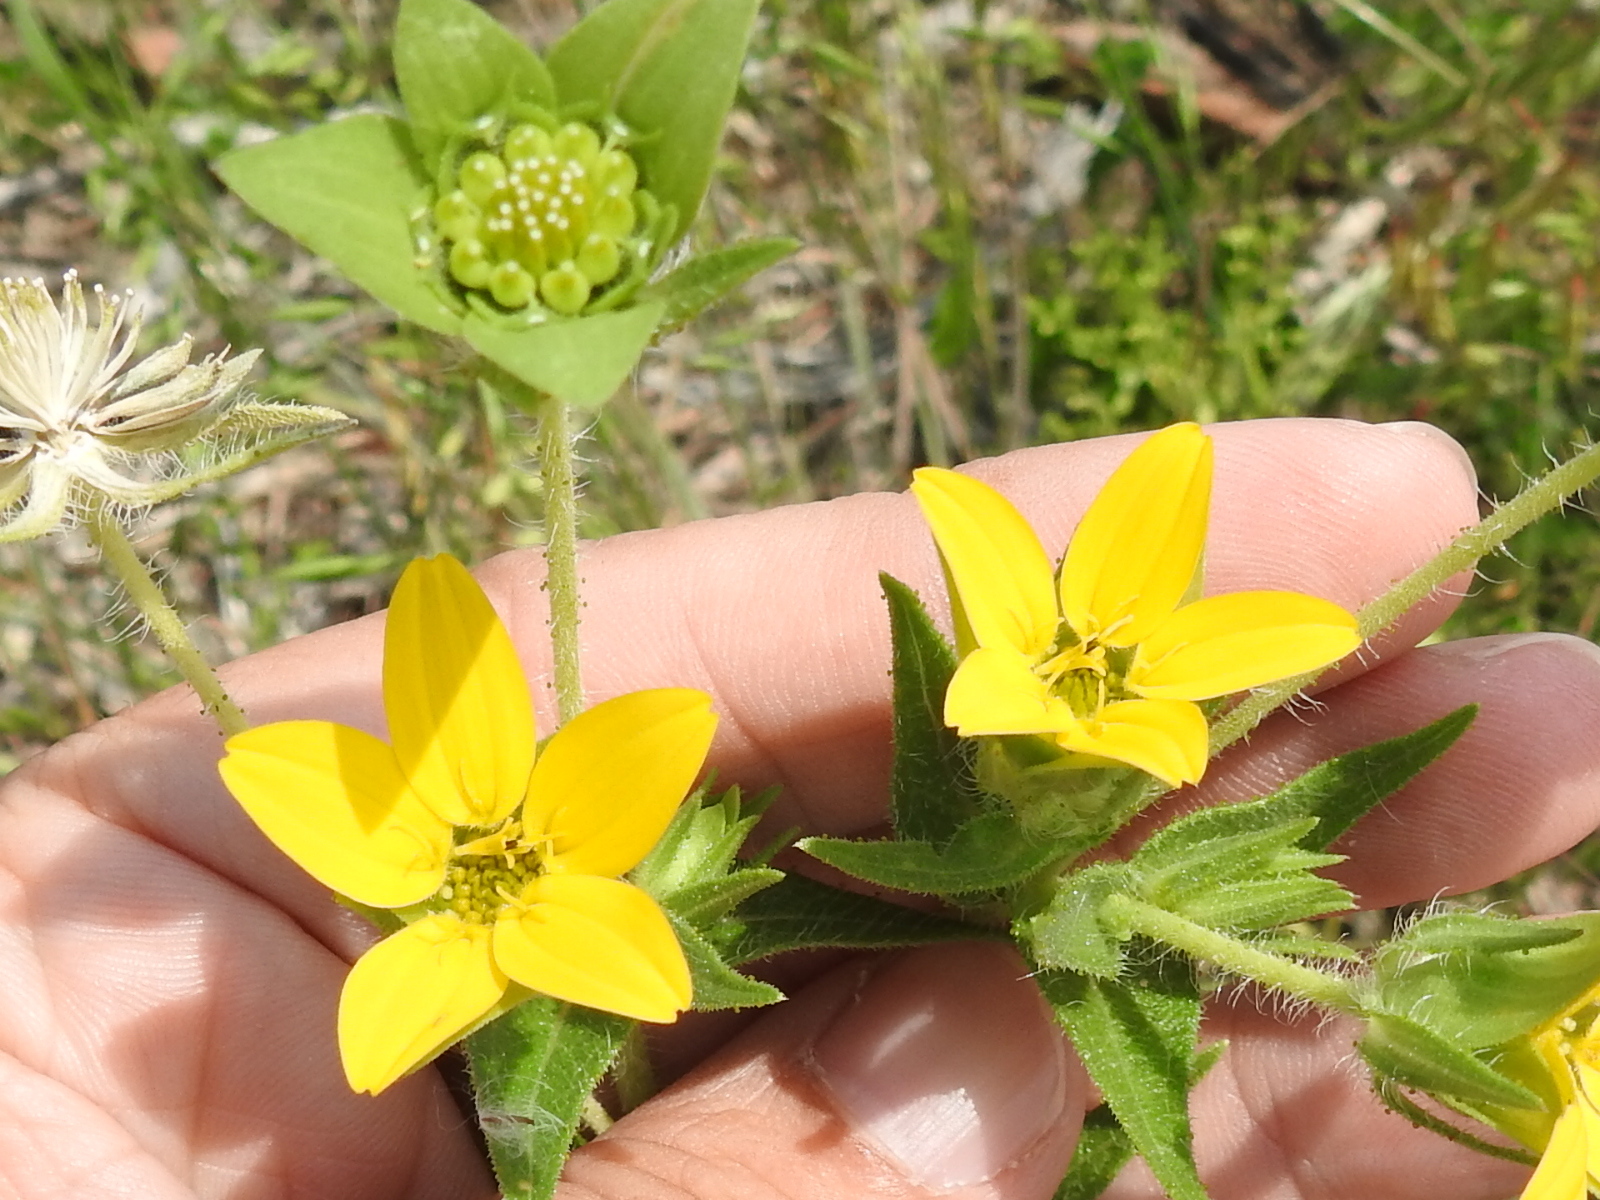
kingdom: Plantae
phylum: Tracheophyta
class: Magnoliopsida
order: Asterales
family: Asteraceae
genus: Lindheimera
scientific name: Lindheimera texana
